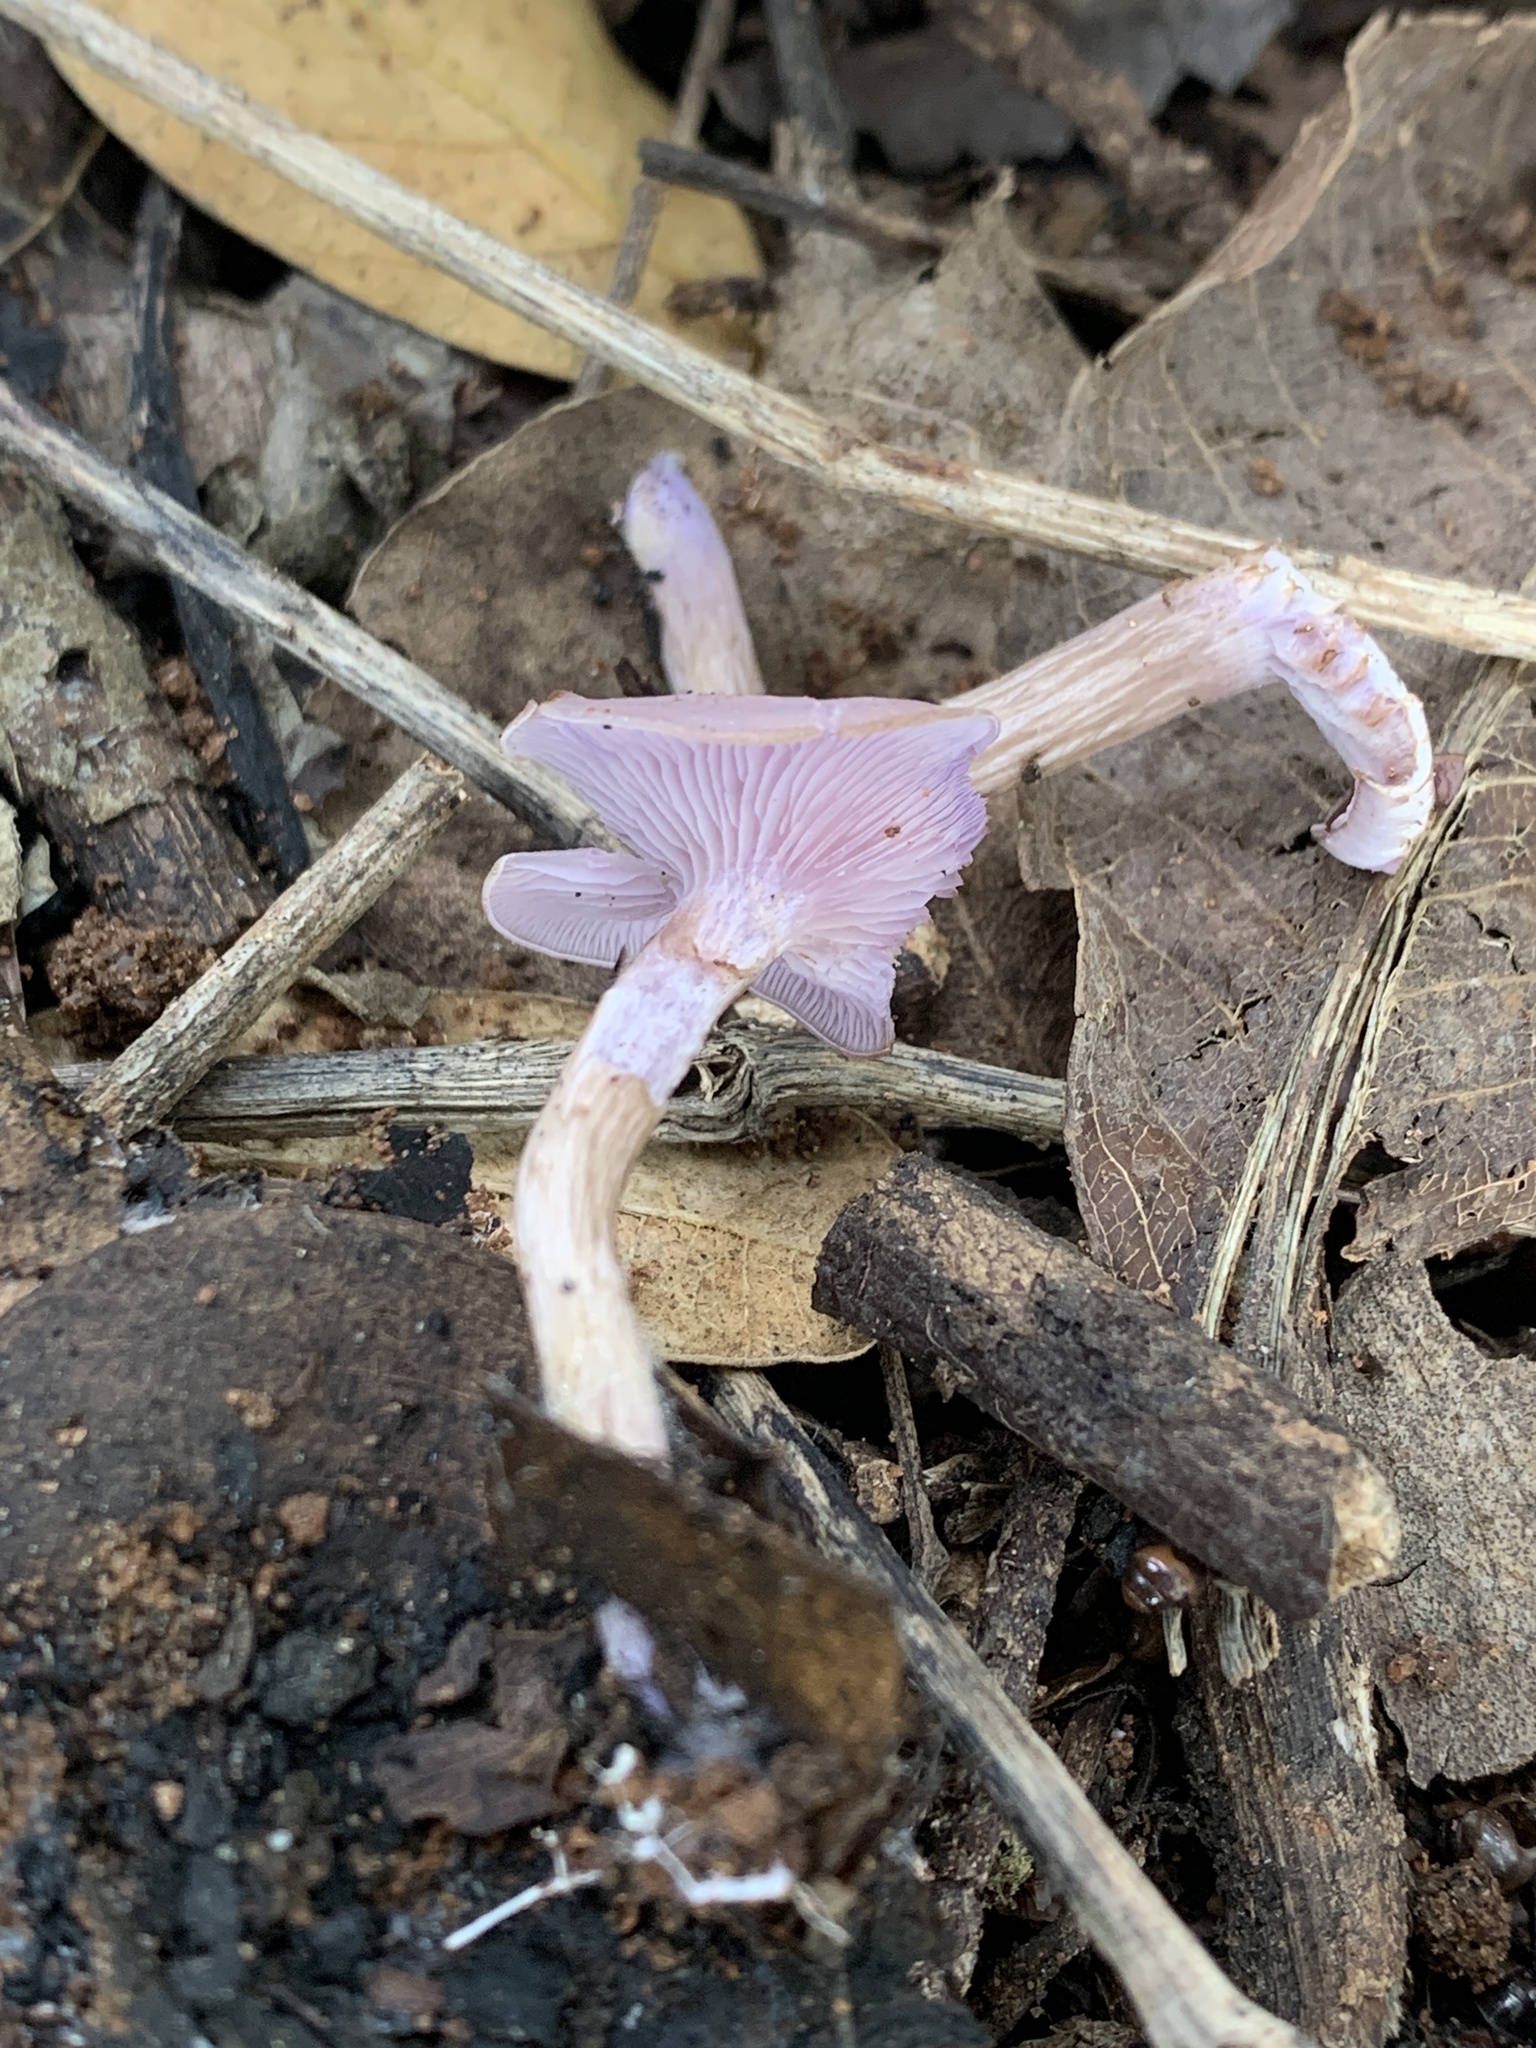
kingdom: Fungi
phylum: Basidiomycota
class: Agaricomycetes
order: Agaricales
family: Tricholomataceae
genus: Collybia
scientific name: Collybia
